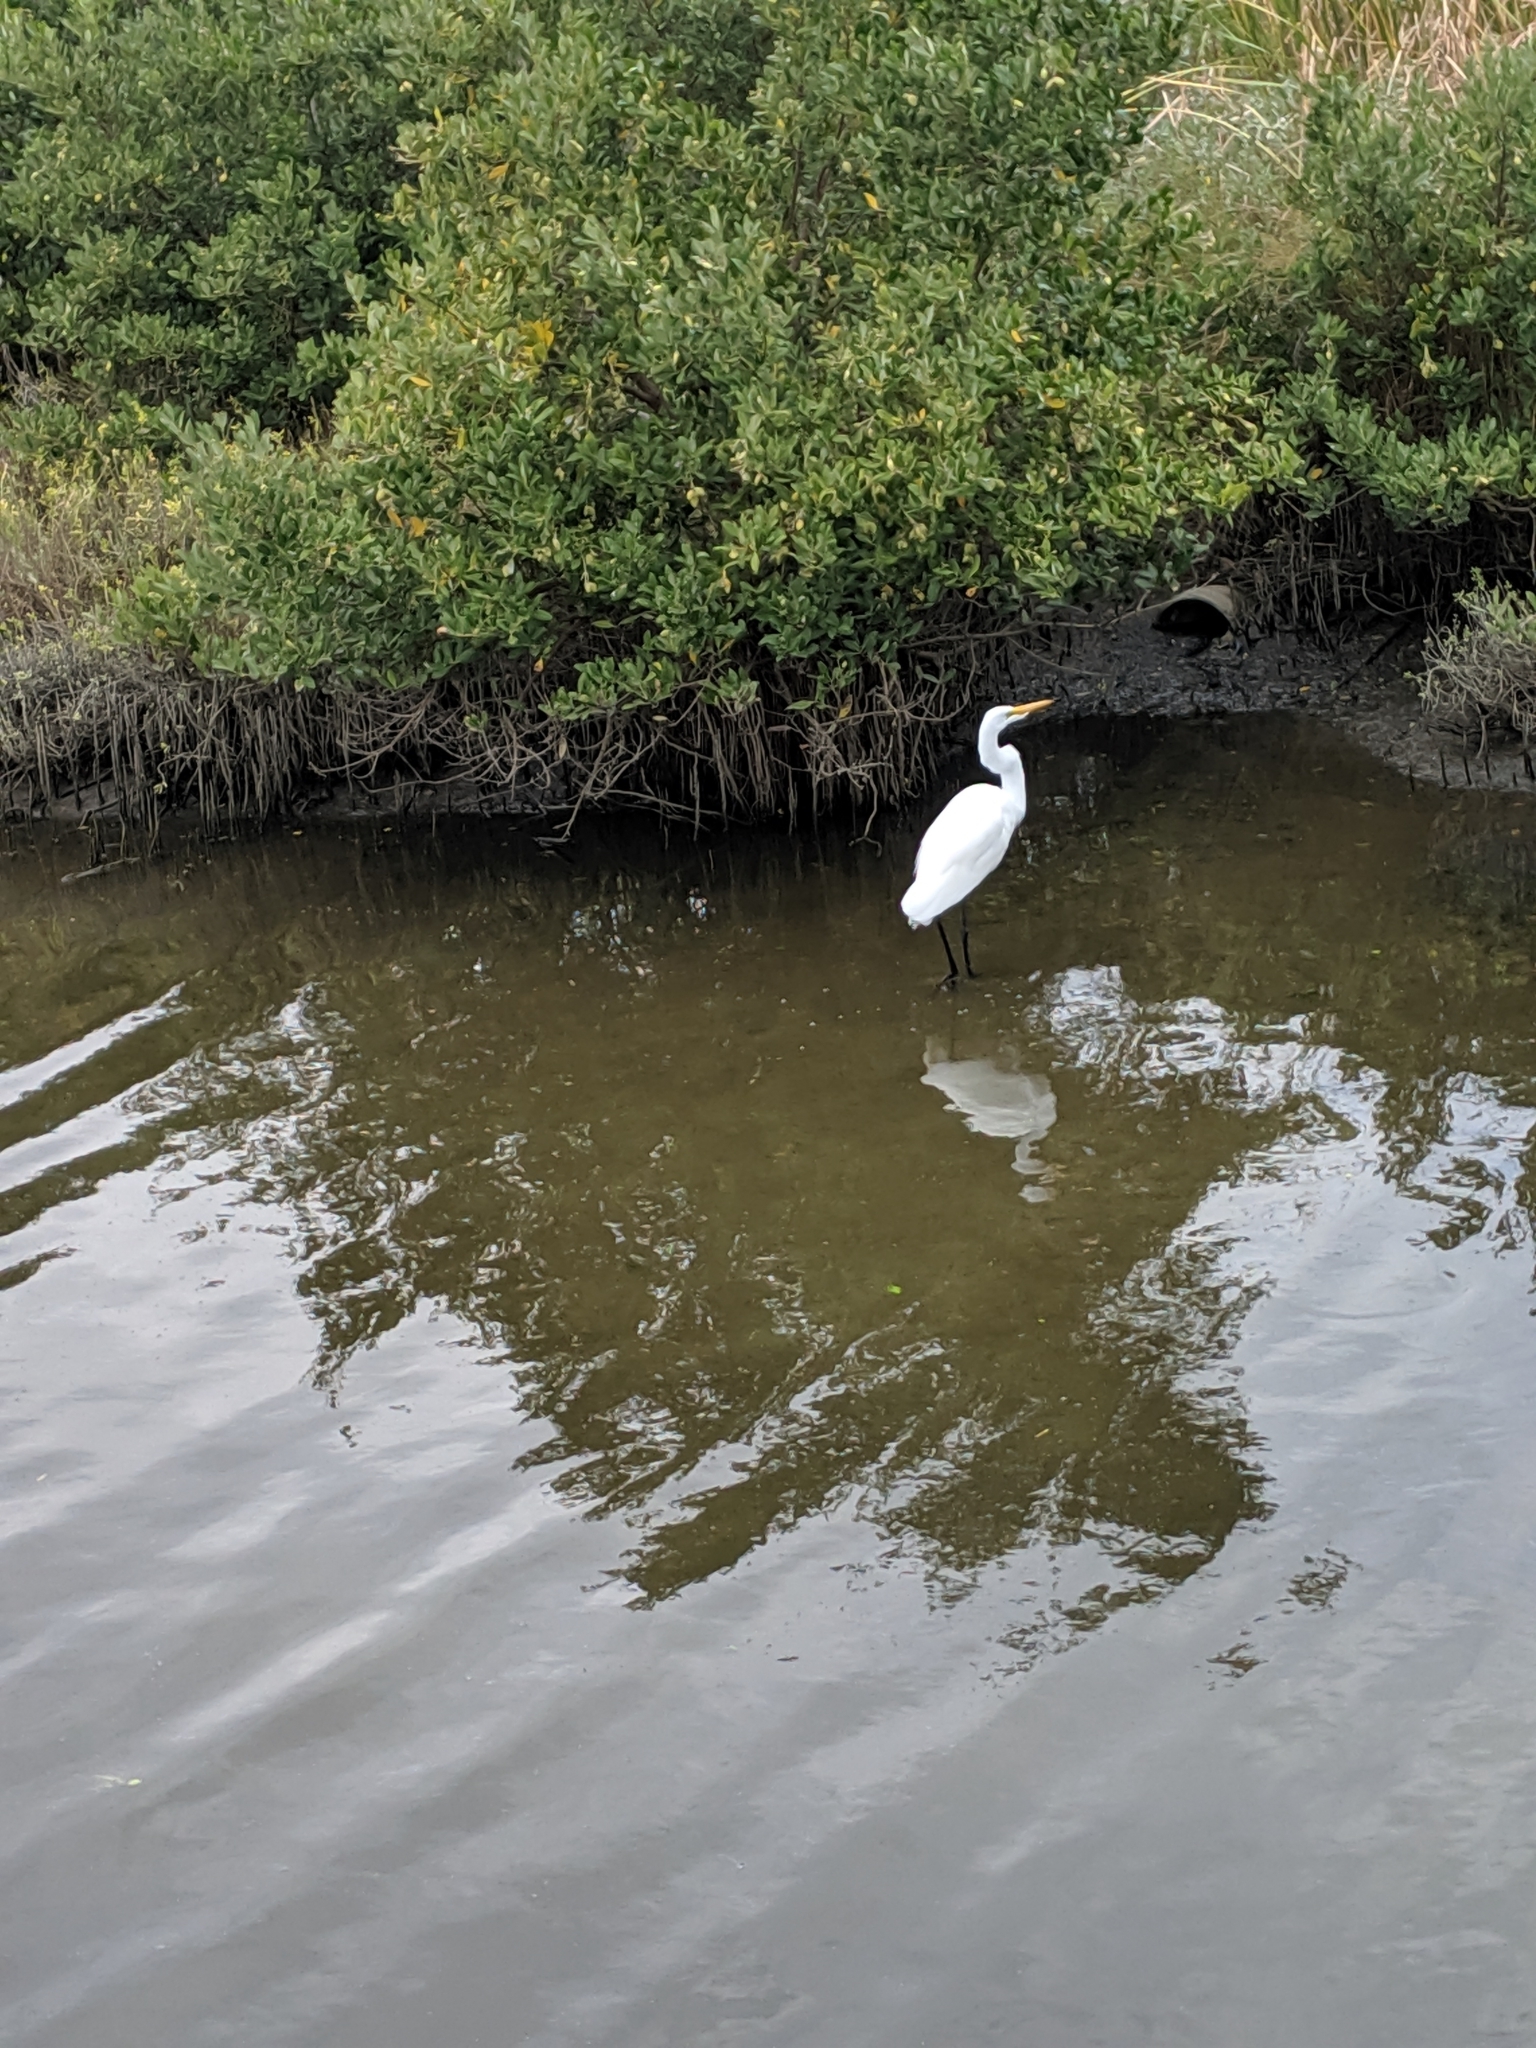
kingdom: Animalia
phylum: Chordata
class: Aves
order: Pelecaniformes
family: Ardeidae
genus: Ardea
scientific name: Ardea alba
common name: Great egret
